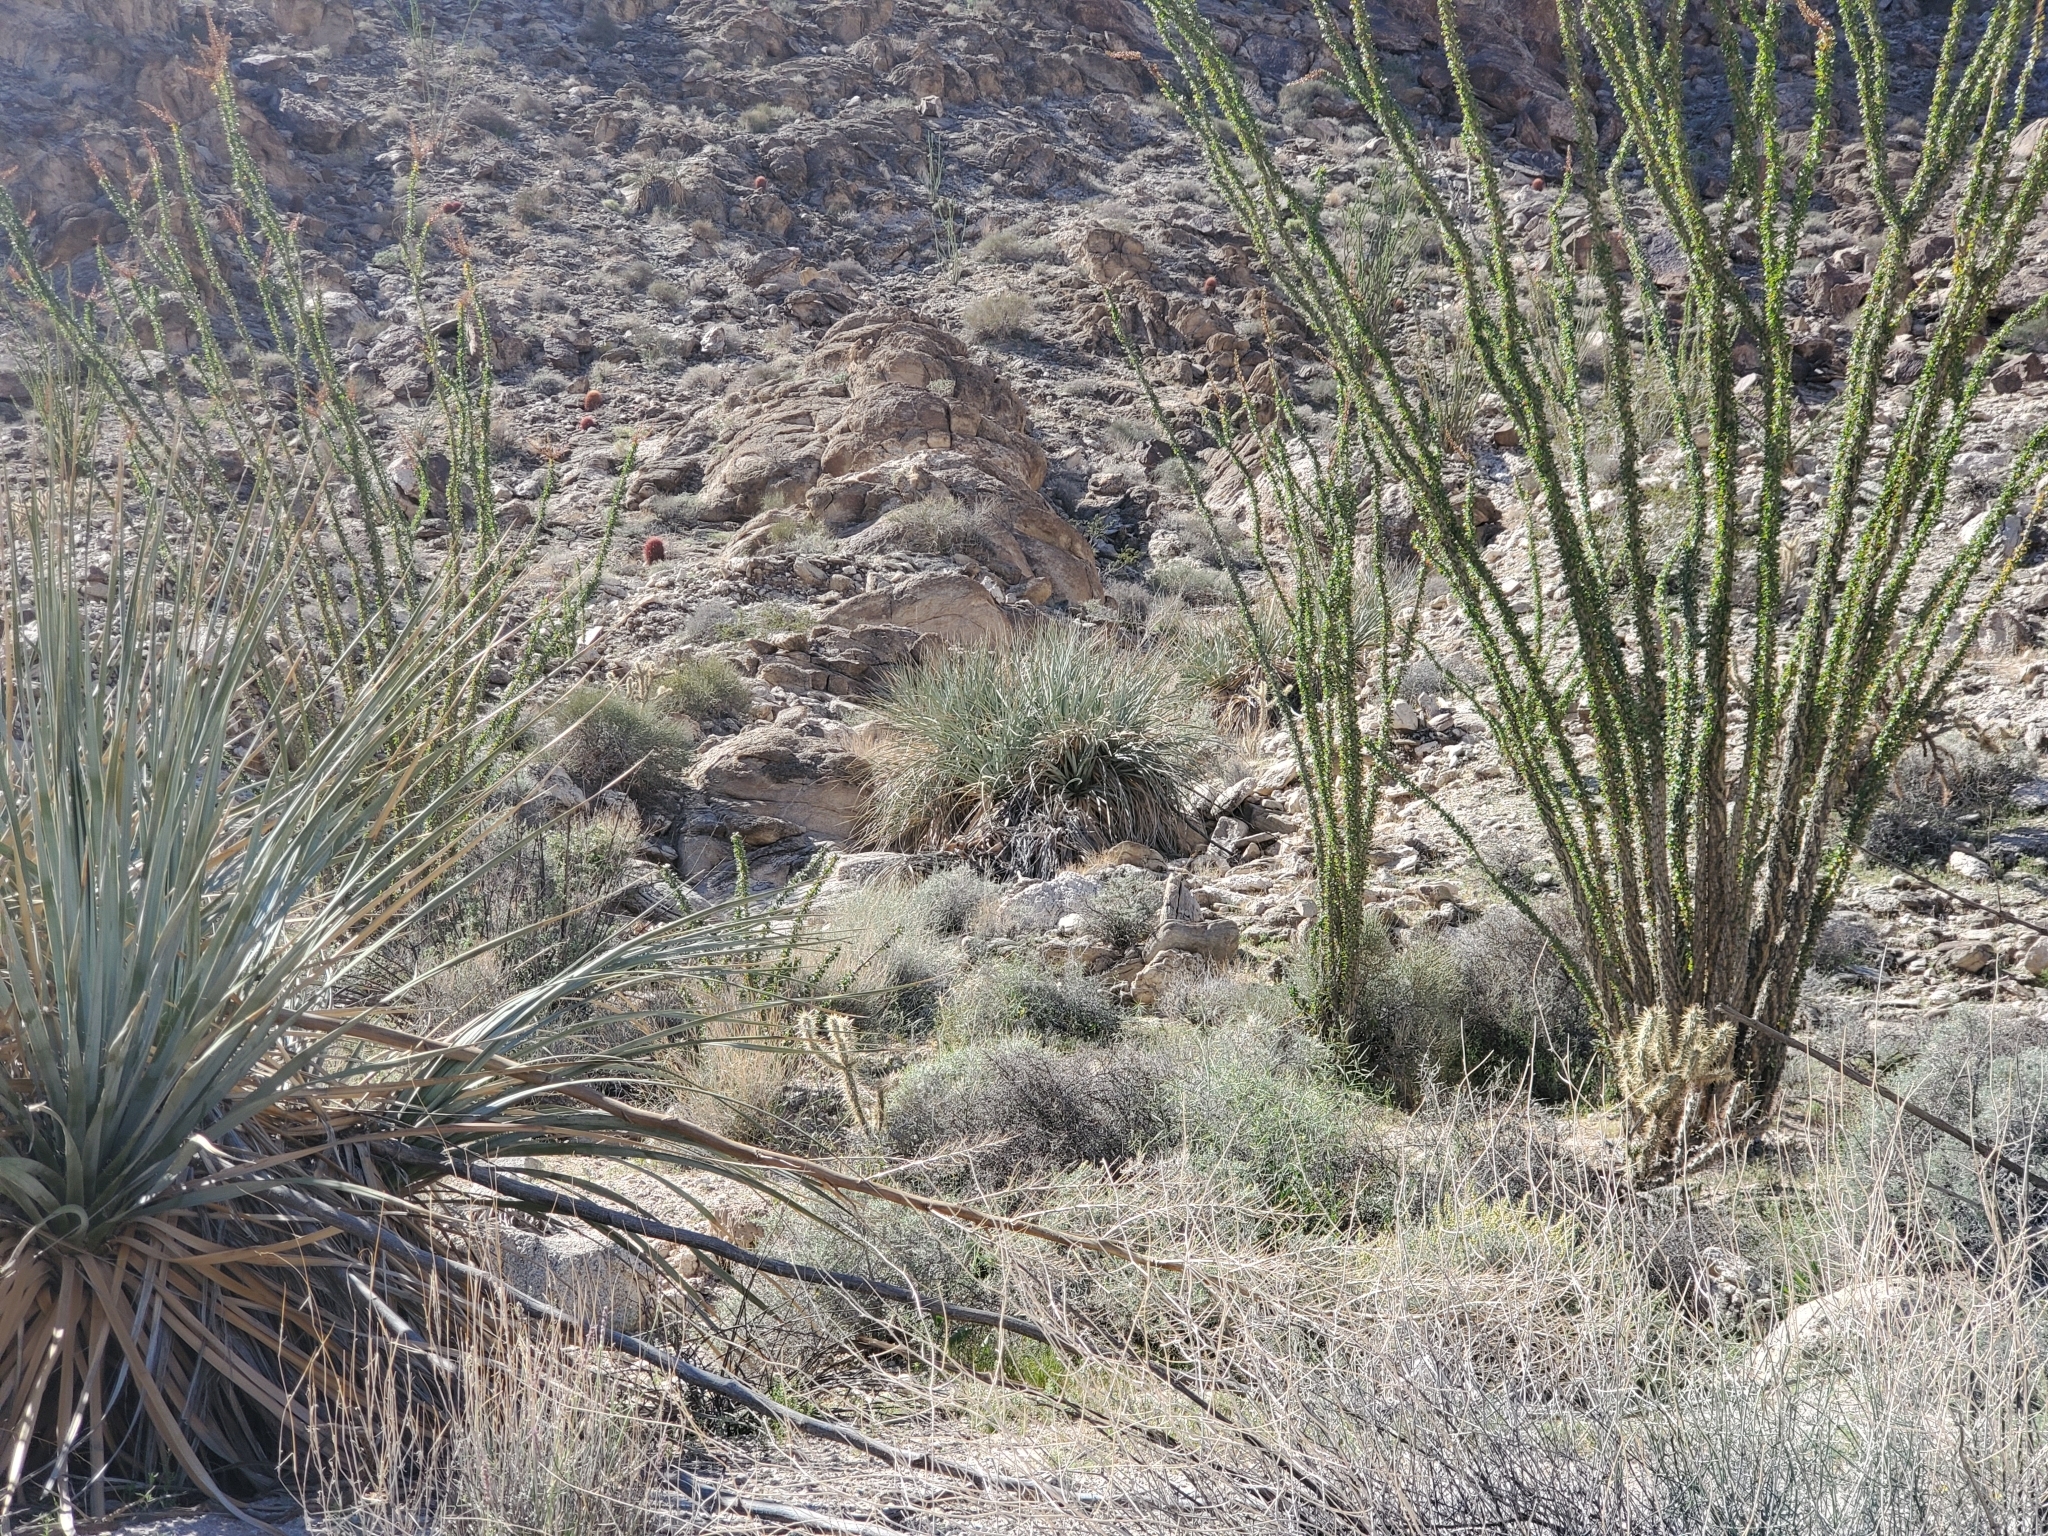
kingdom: Plantae
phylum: Tracheophyta
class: Liliopsida
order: Asparagales
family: Asparagaceae
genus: Nolina
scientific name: Nolina bigelovii
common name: Bigelow bear-grass
